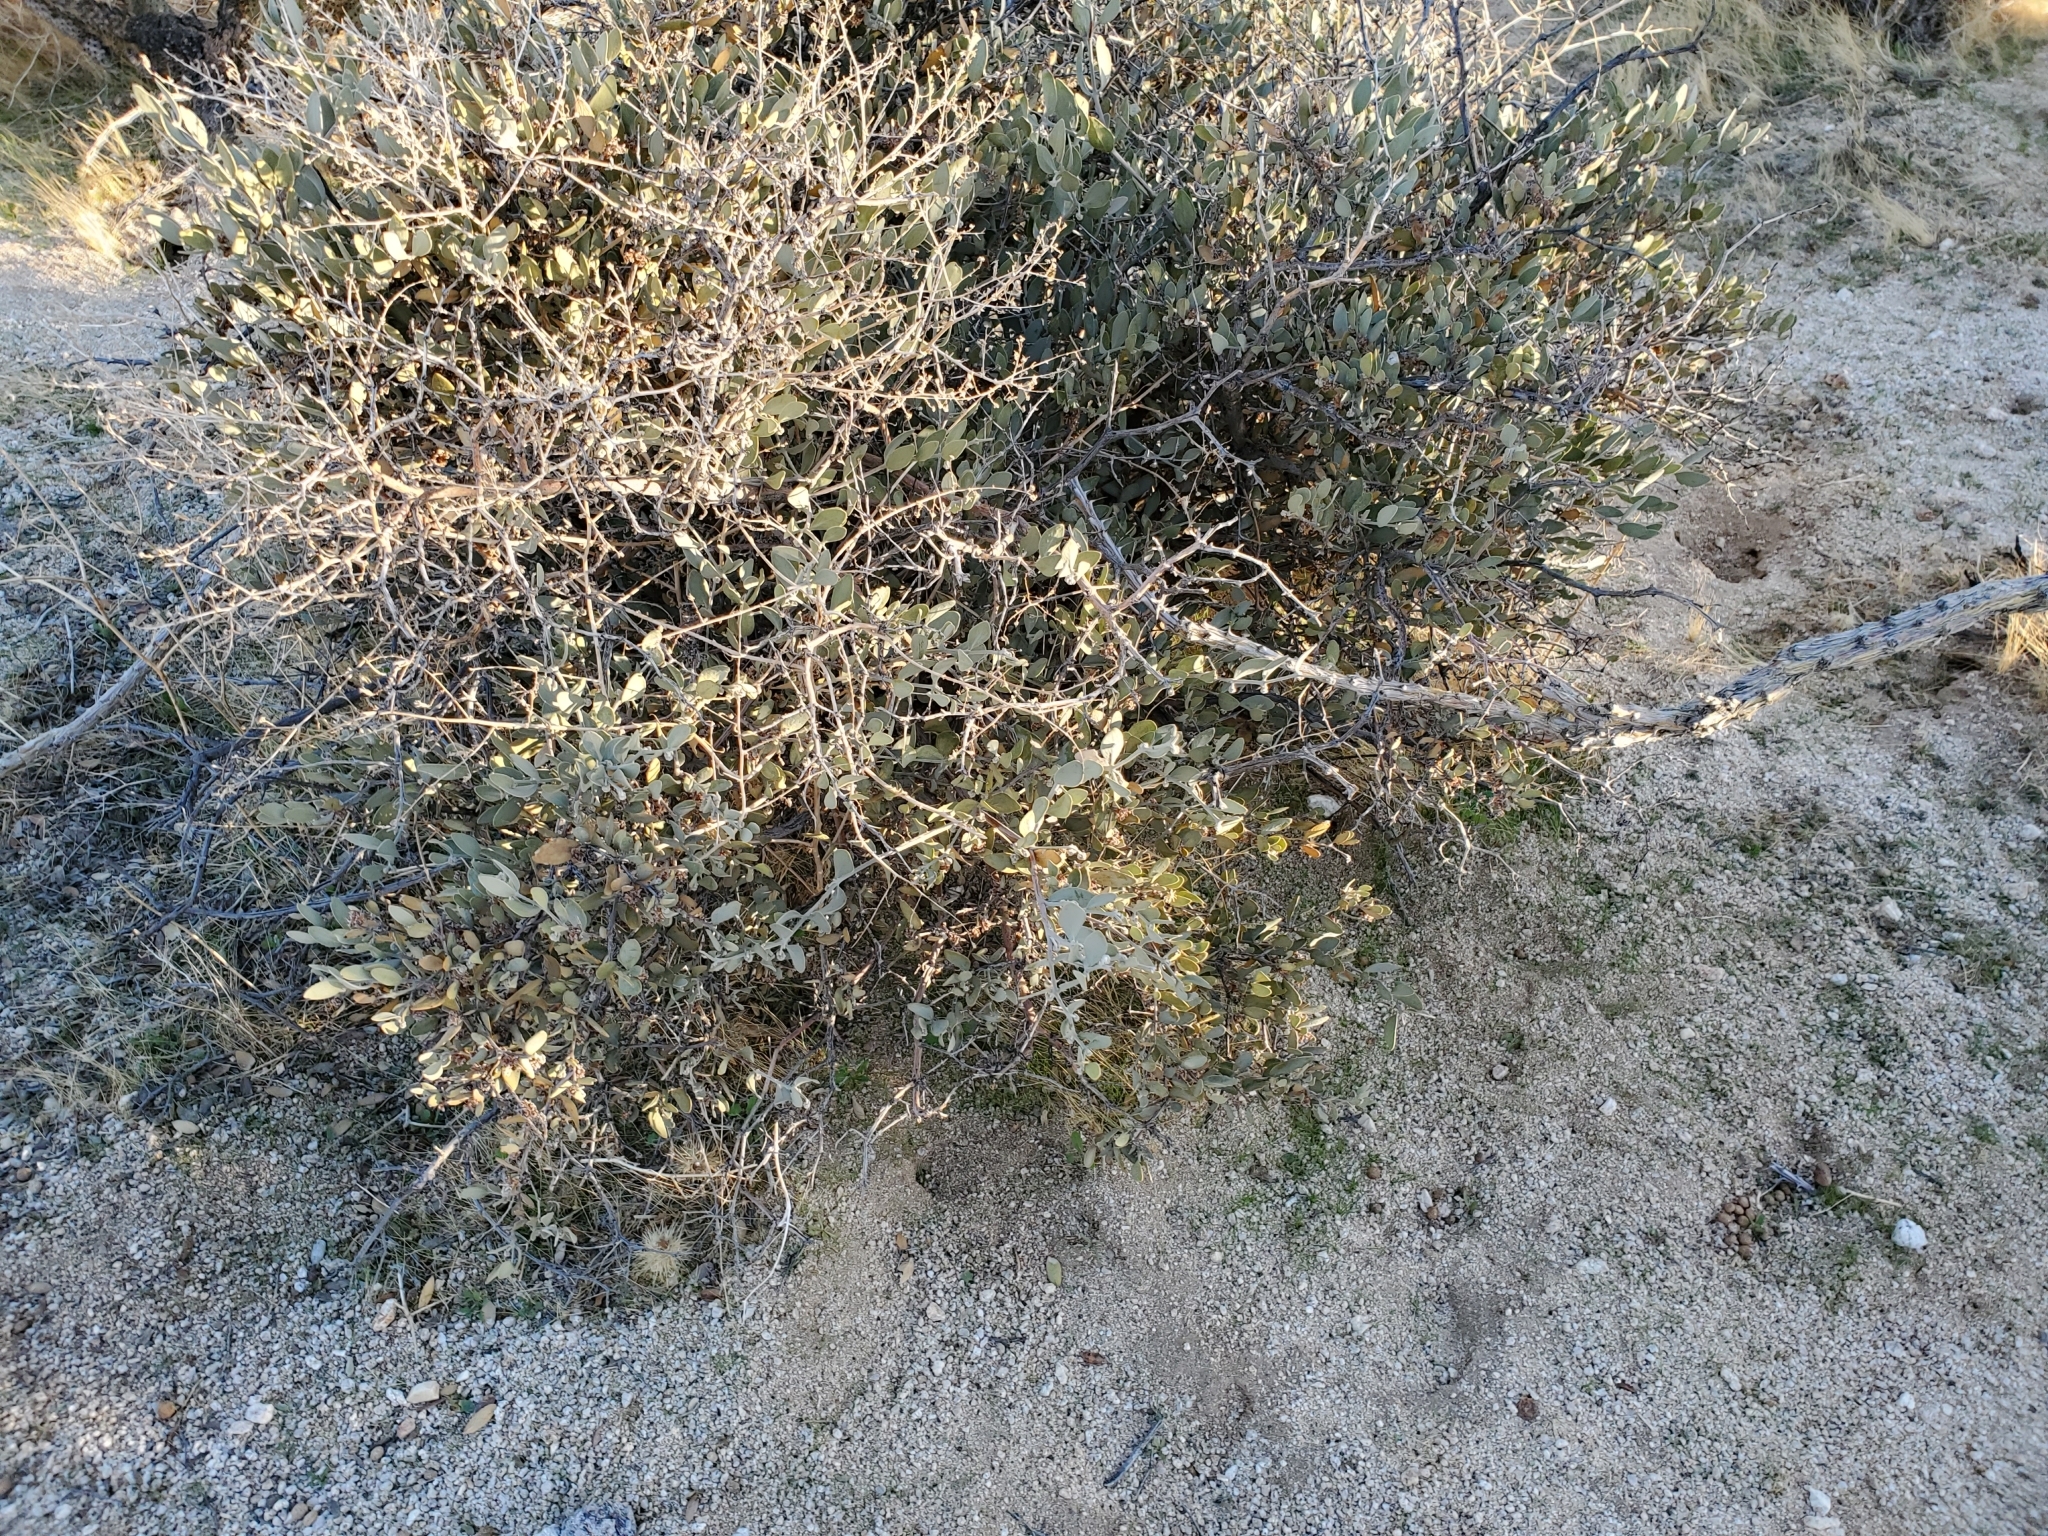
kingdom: Plantae
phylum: Tracheophyta
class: Magnoliopsida
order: Caryophyllales
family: Simmondsiaceae
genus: Simmondsia
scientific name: Simmondsia chinensis
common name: Jojoba
